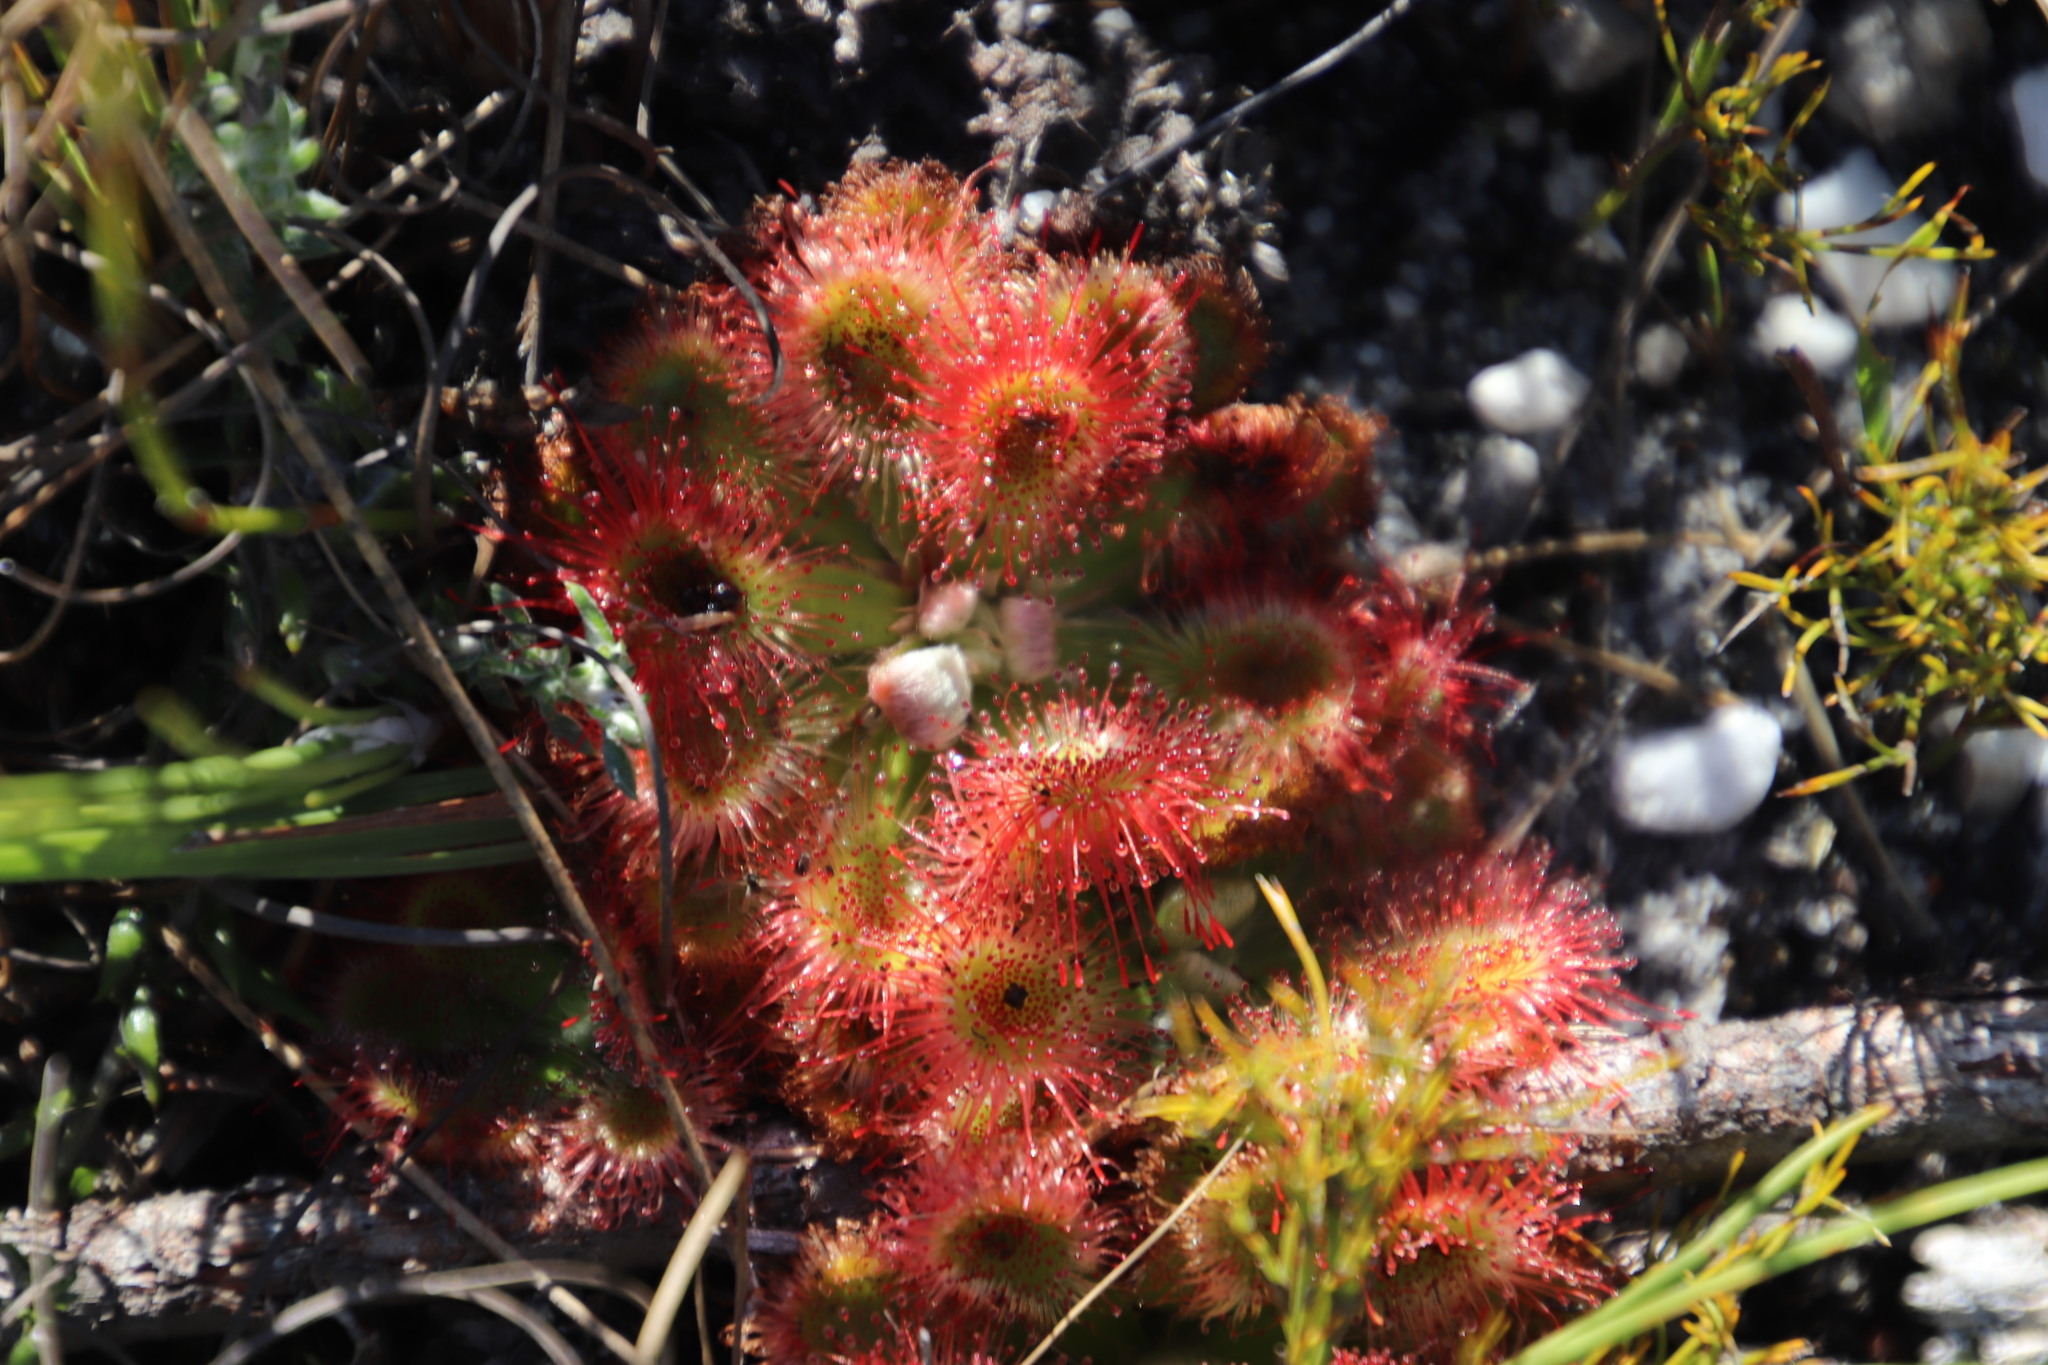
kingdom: Plantae
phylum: Tracheophyta
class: Magnoliopsida
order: Caryophyllales
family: Droseraceae
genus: Drosera
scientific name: Drosera aliciae
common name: Alice sundew
